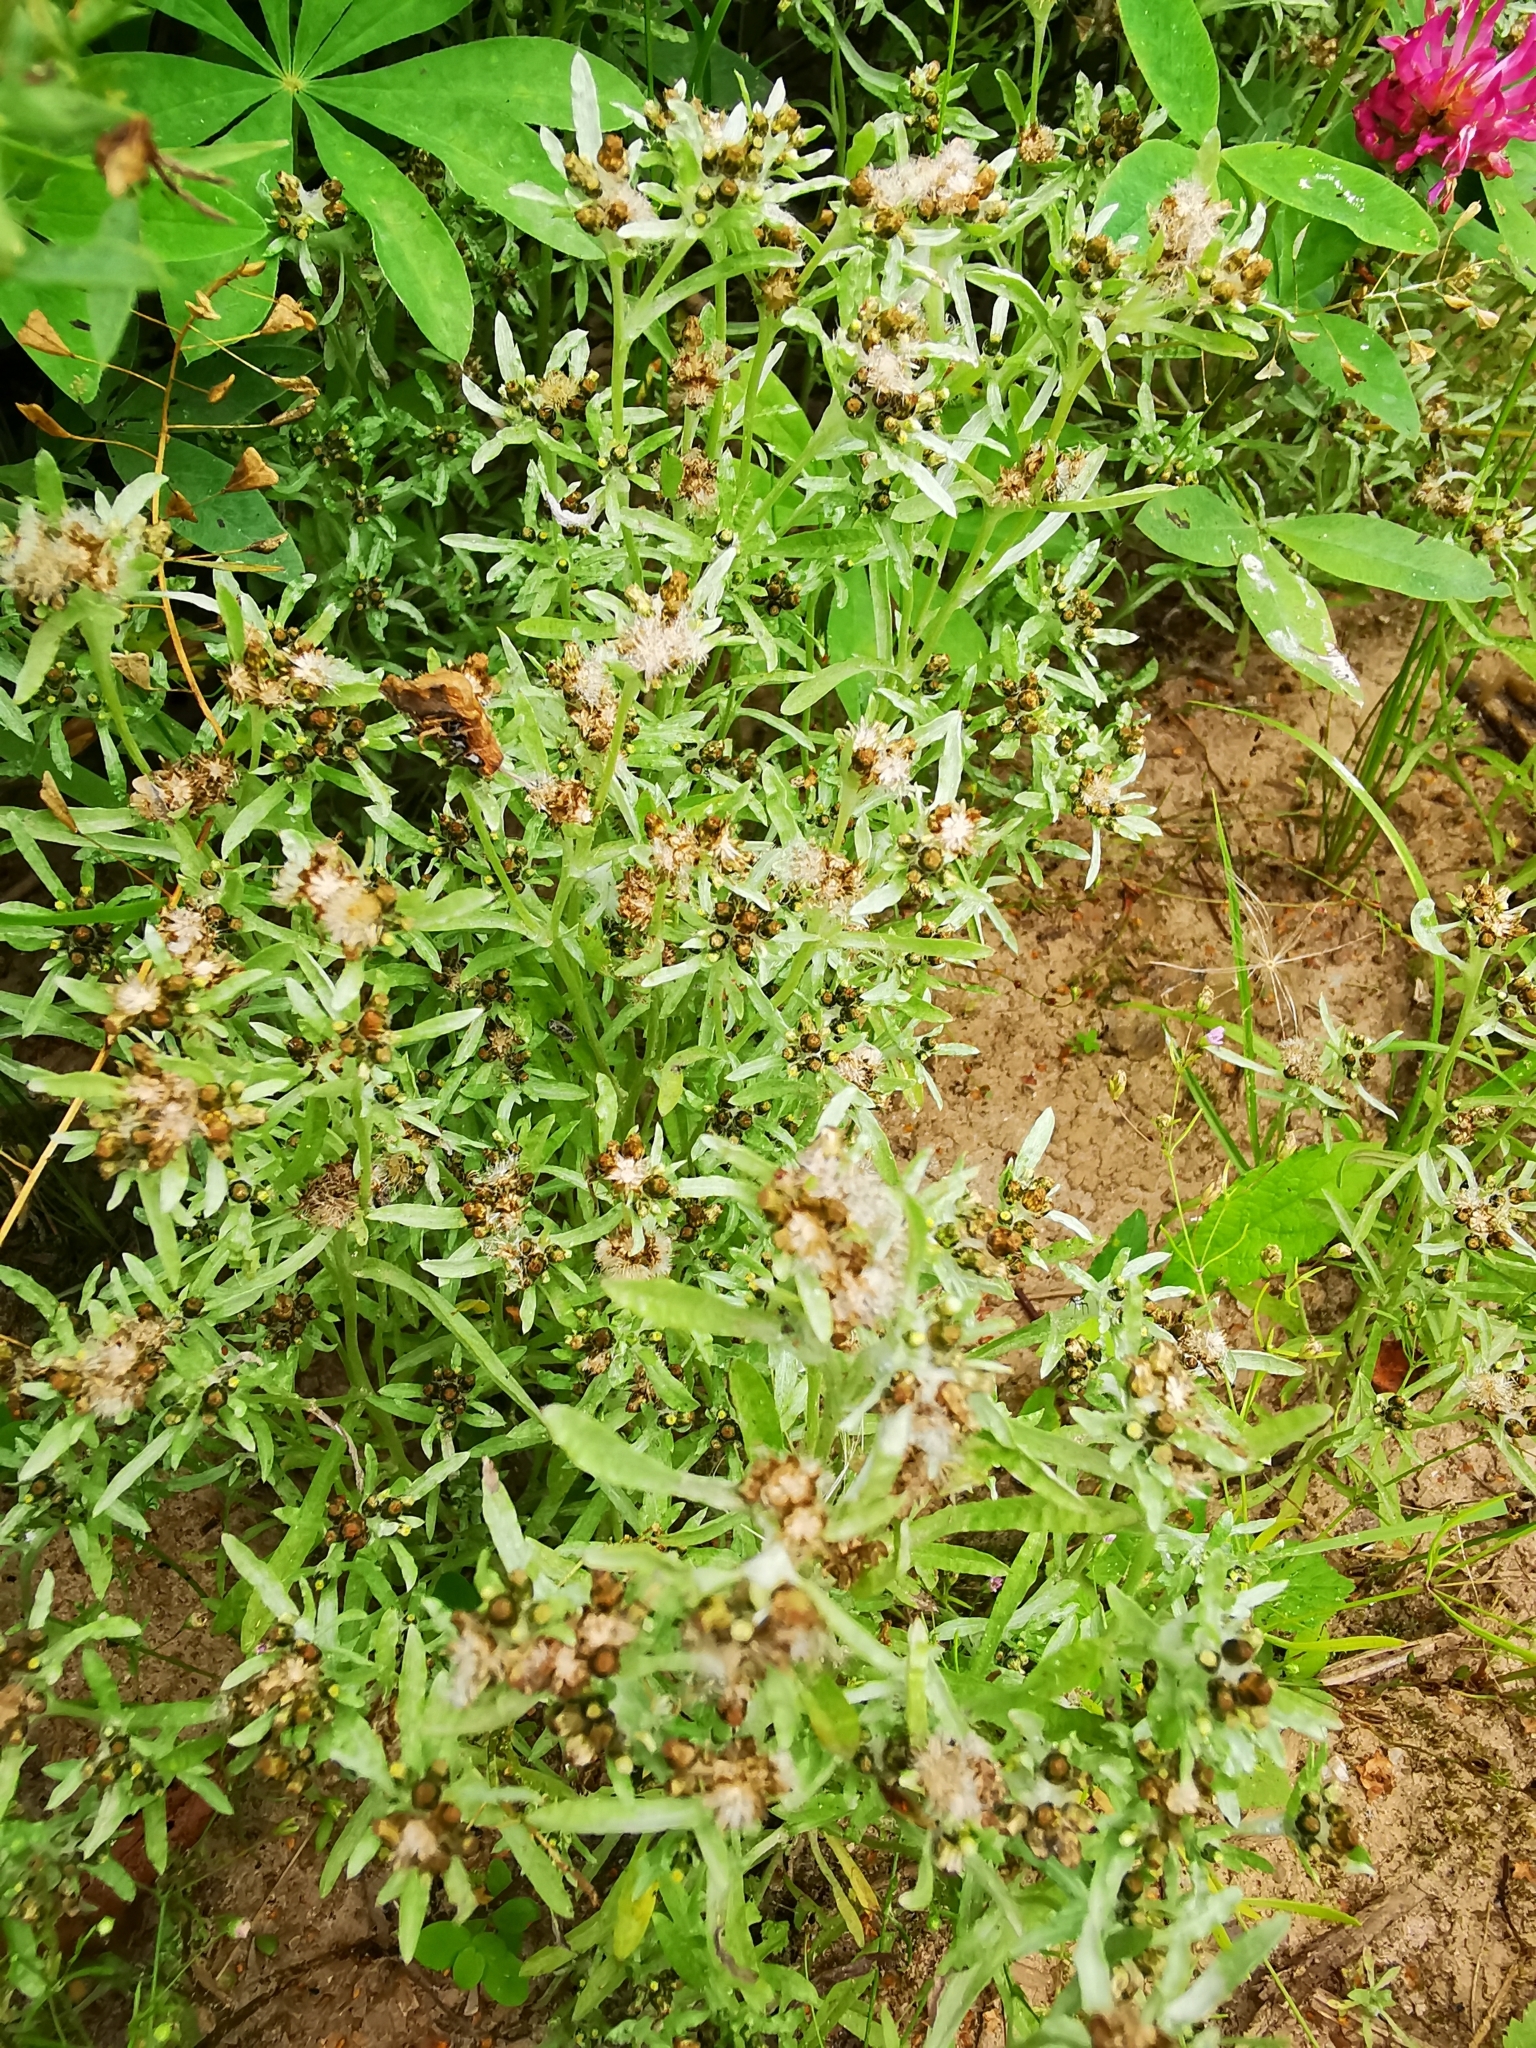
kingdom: Plantae
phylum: Tracheophyta
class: Magnoliopsida
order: Asterales
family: Asteraceae
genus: Gnaphalium
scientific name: Gnaphalium uliginosum
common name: Marsh cudweed
